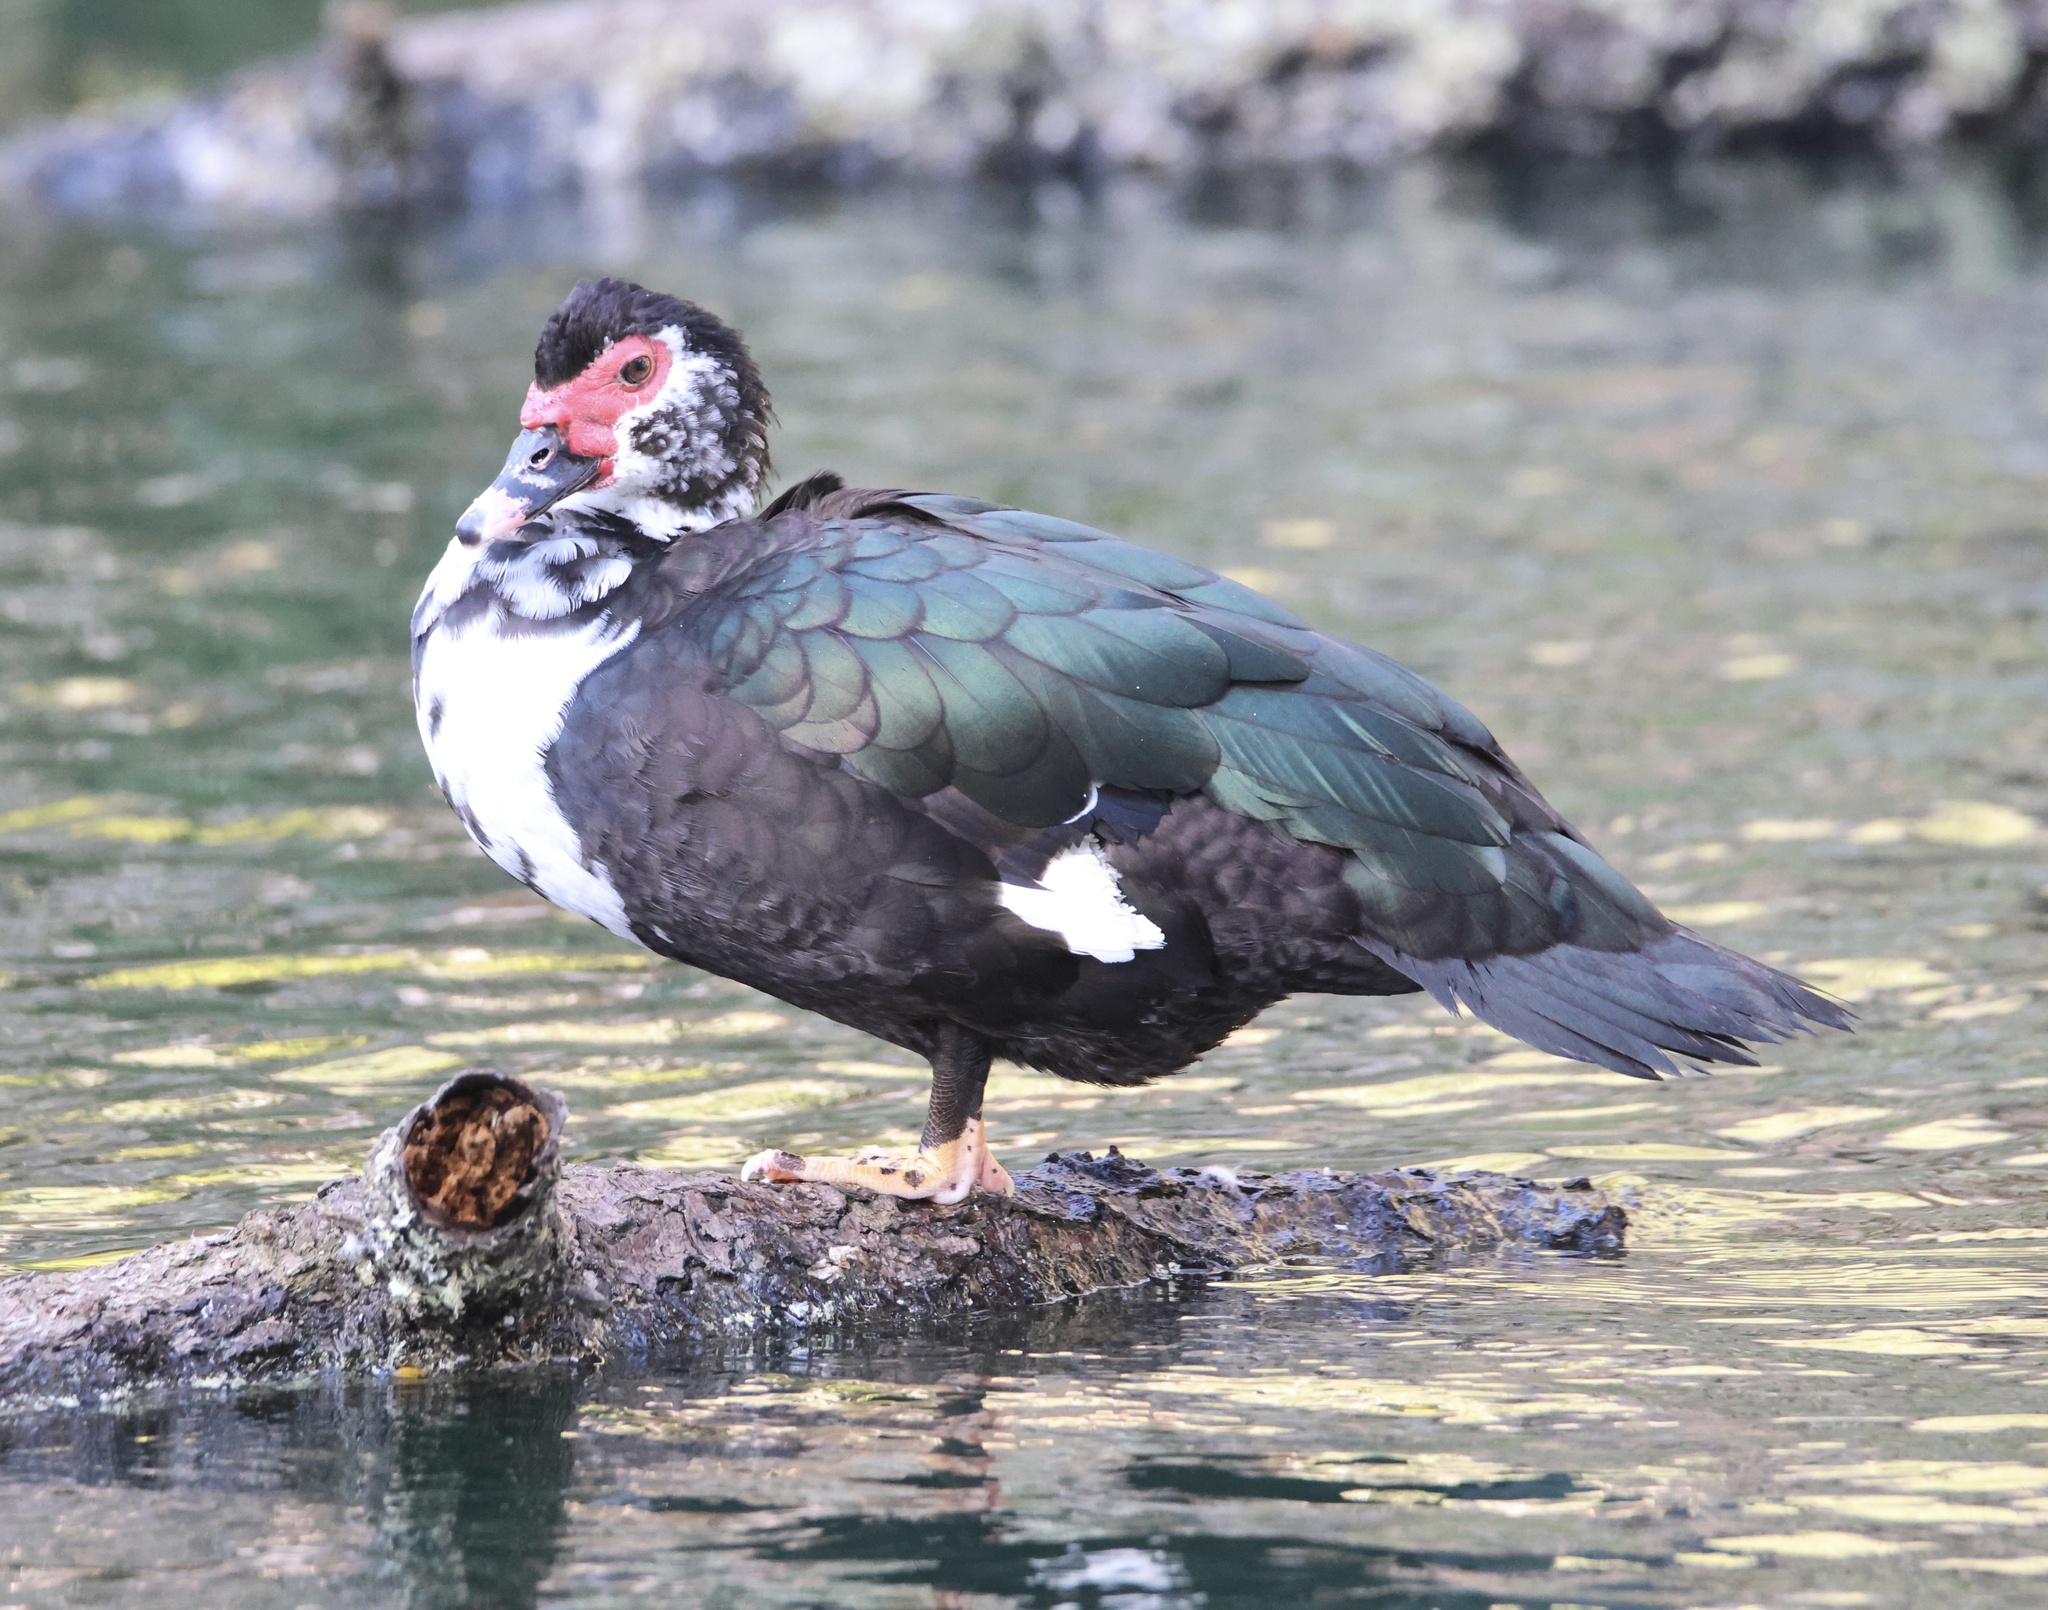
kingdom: Animalia
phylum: Chordata
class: Aves
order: Anseriformes
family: Anatidae
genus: Cairina
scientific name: Cairina moschata
